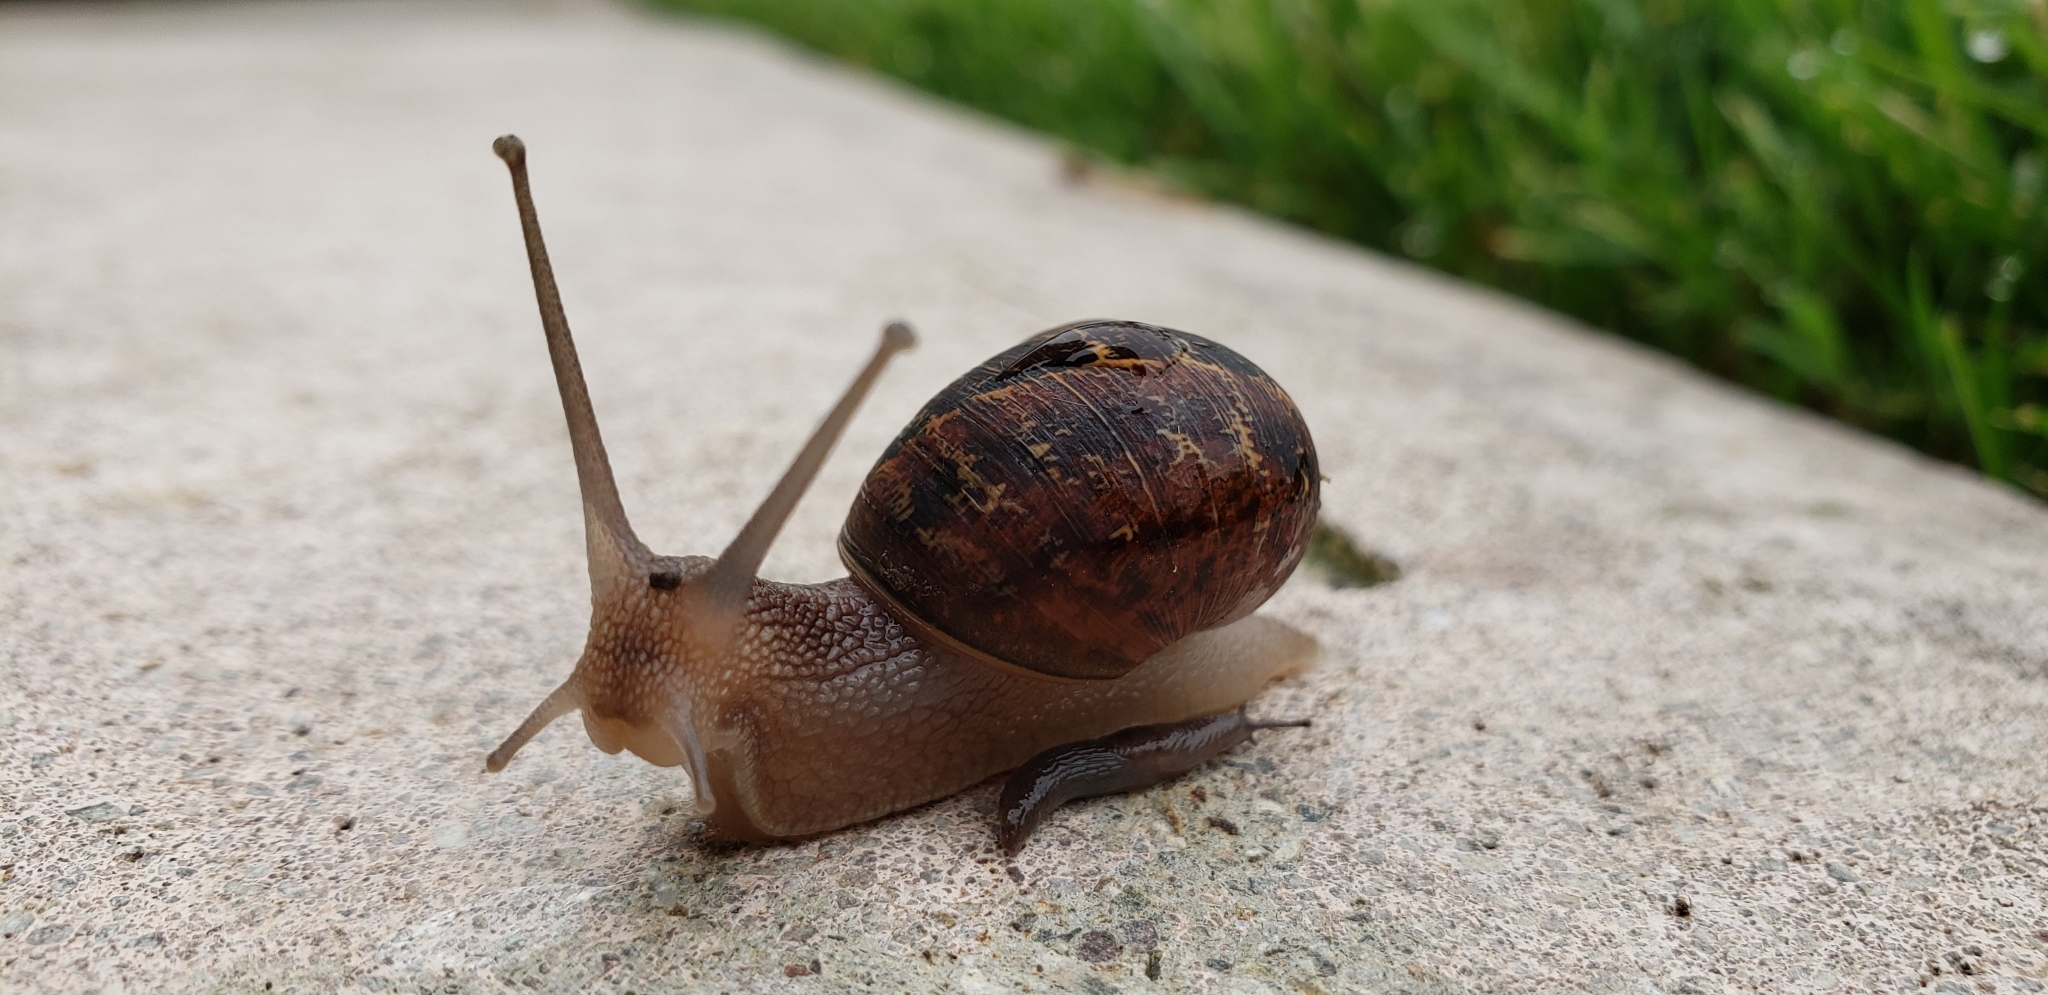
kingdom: Animalia
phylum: Mollusca
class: Gastropoda
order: Stylommatophora
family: Helicidae
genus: Cornu
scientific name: Cornu aspersum
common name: Brown garden snail
